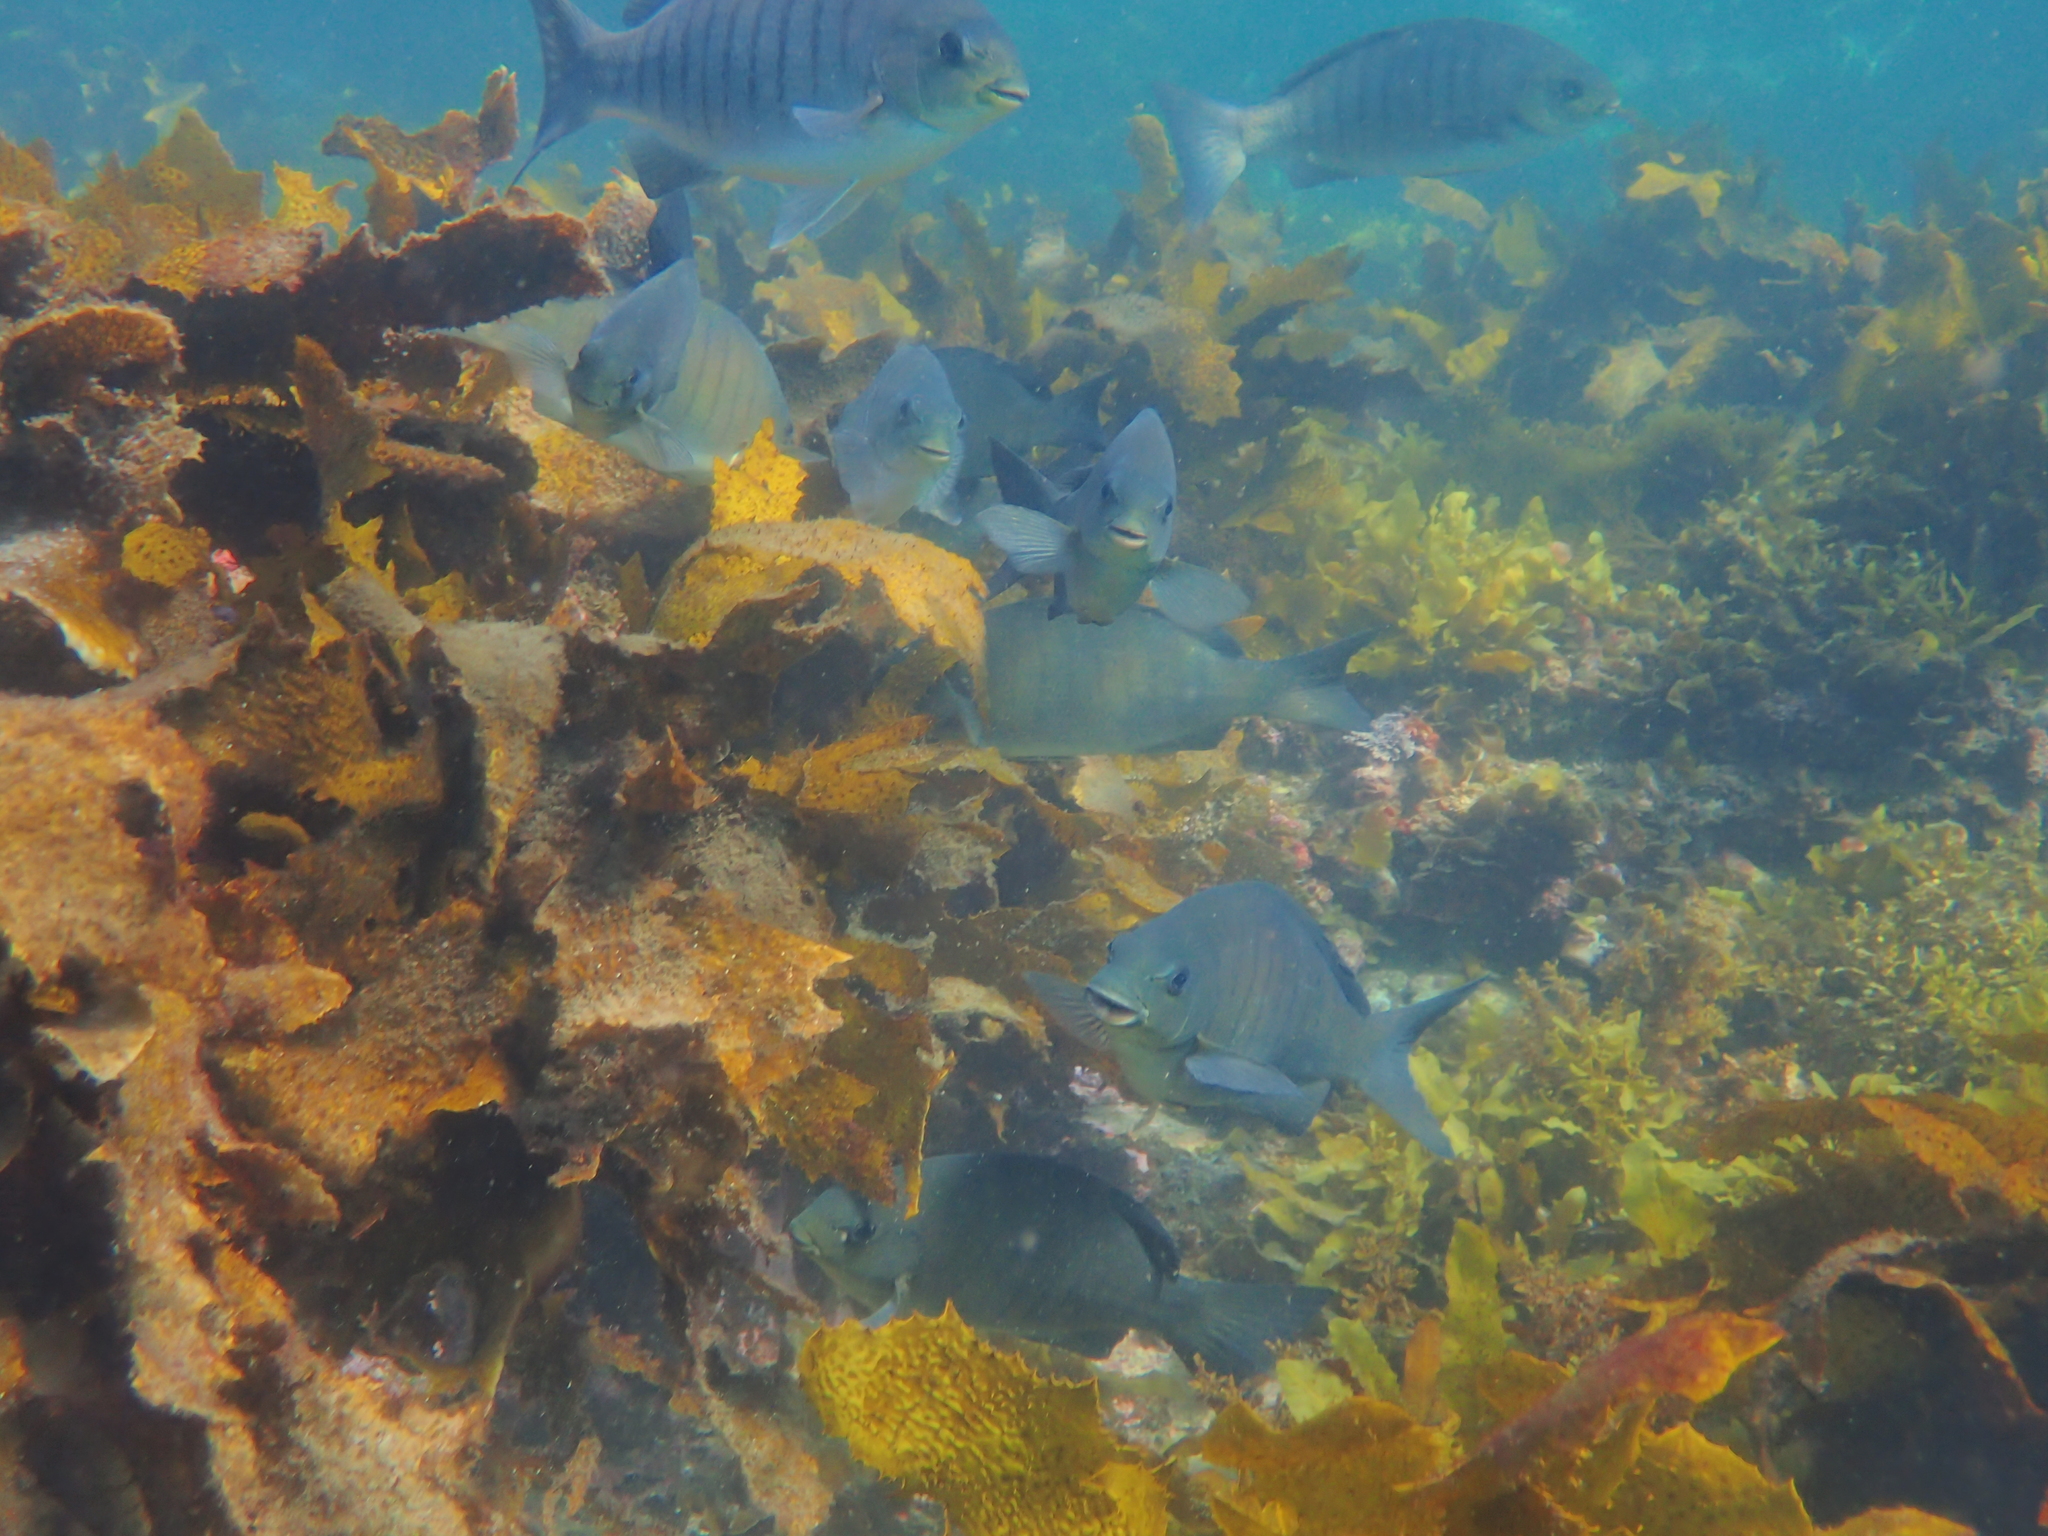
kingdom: Animalia
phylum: Chordata
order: Perciformes
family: Kyphosidae
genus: Girella
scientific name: Girella tricuspidata
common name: Parore
